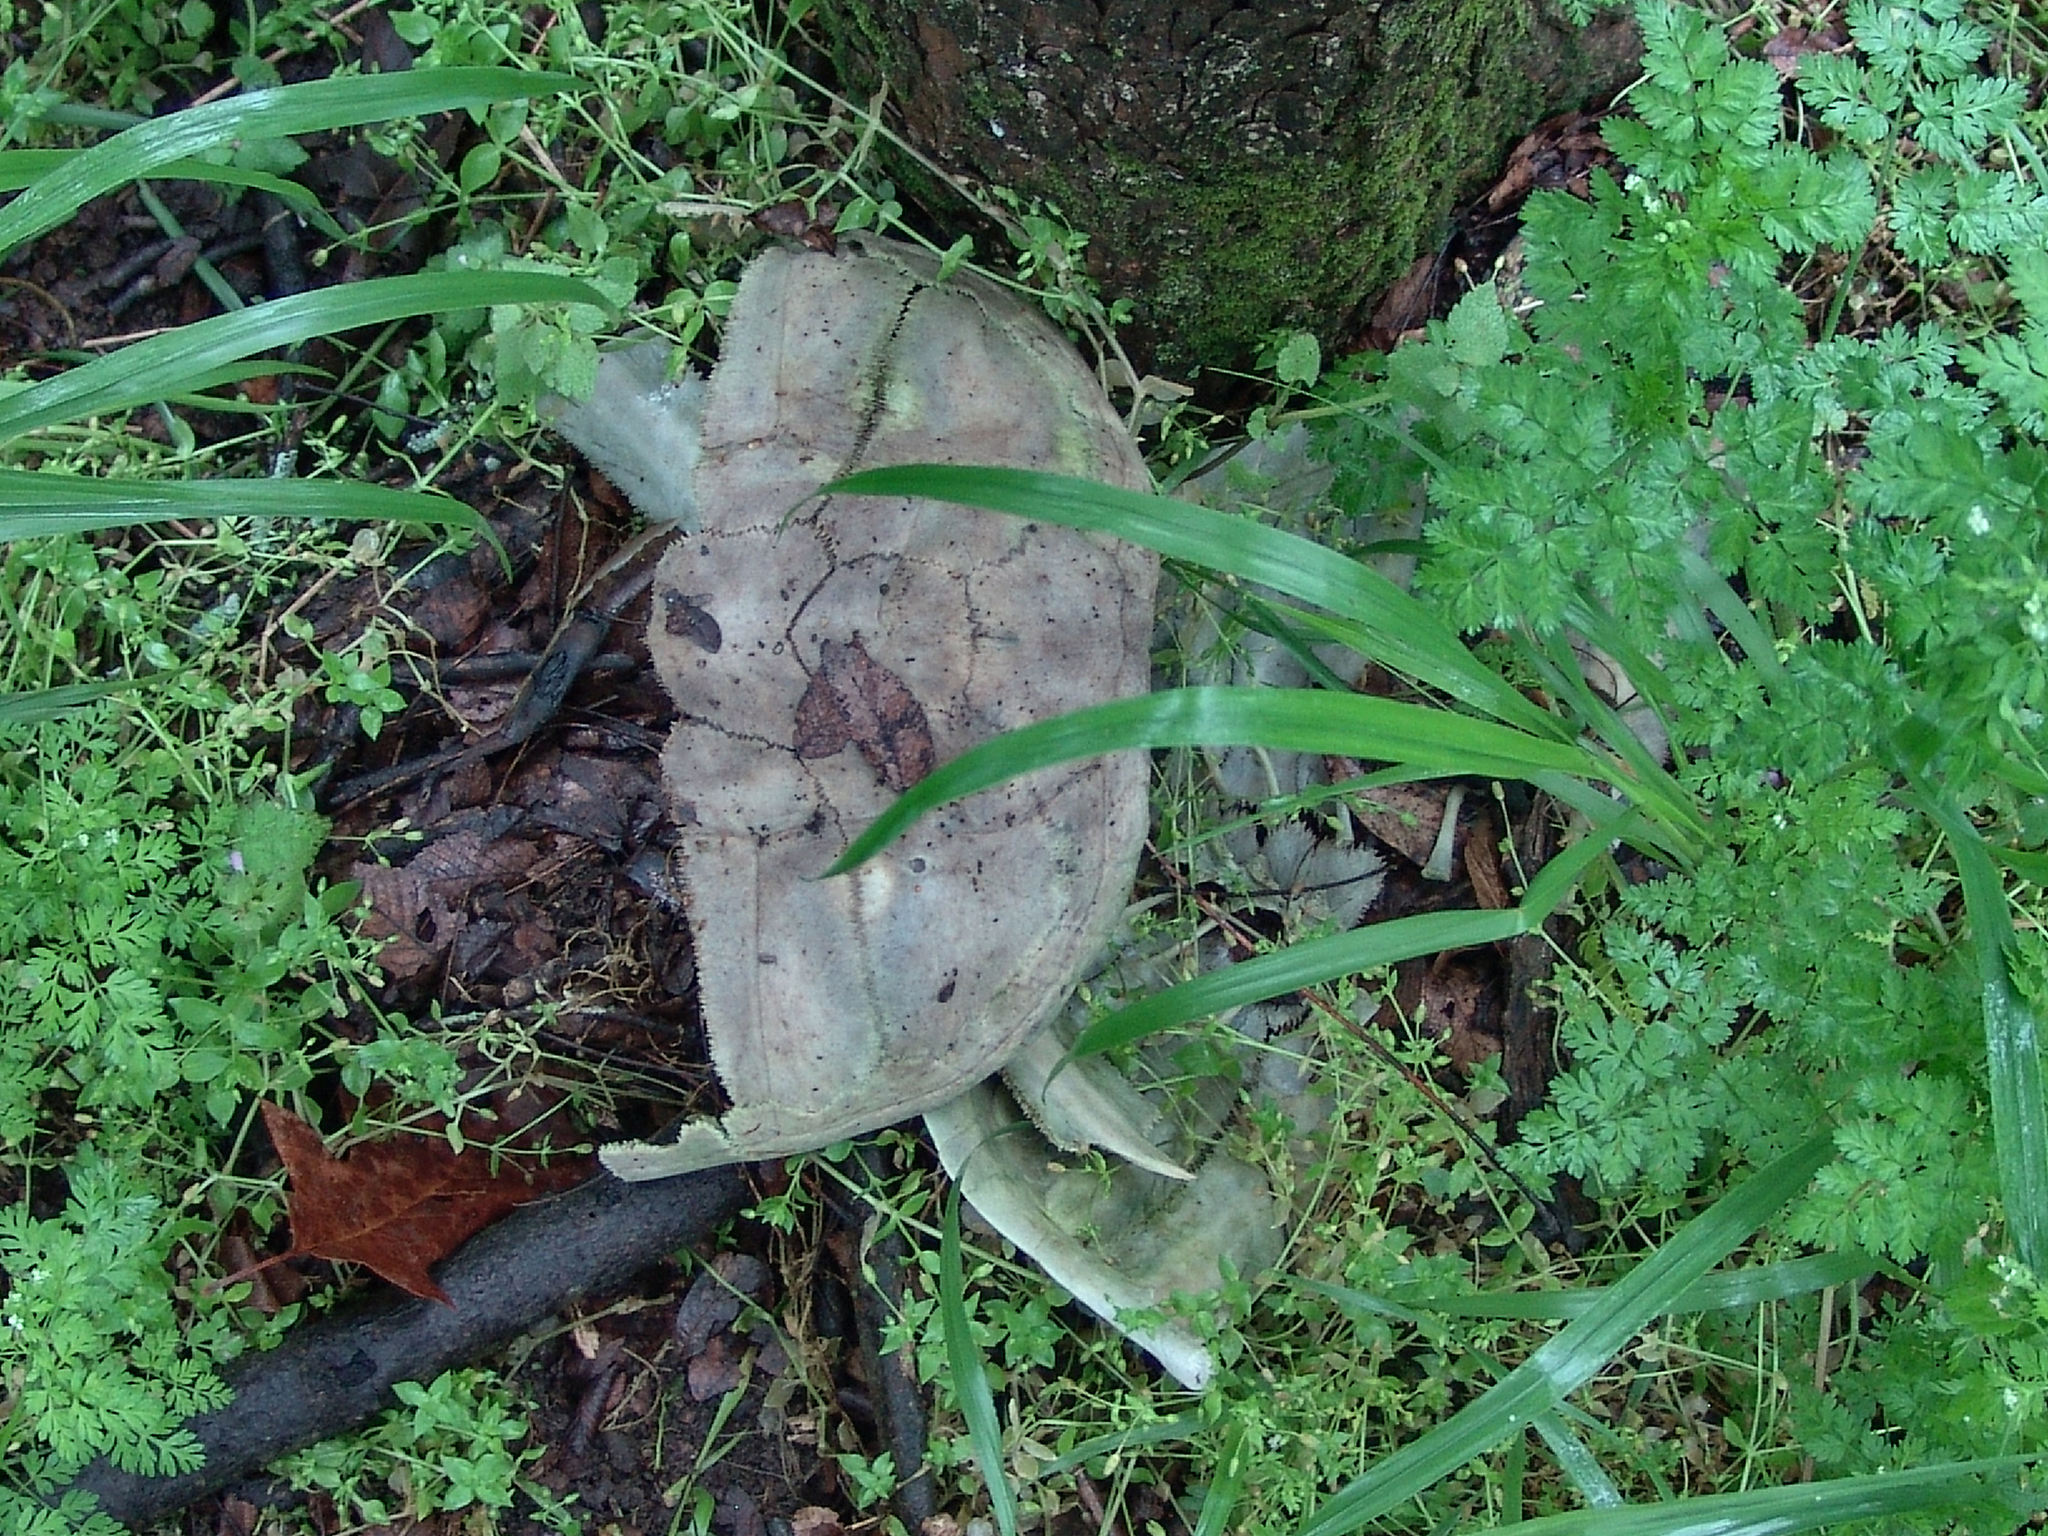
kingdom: Animalia
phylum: Chordata
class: Testudines
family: Chelydridae
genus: Chelydra
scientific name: Chelydra serpentina
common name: Common snapping turtle
